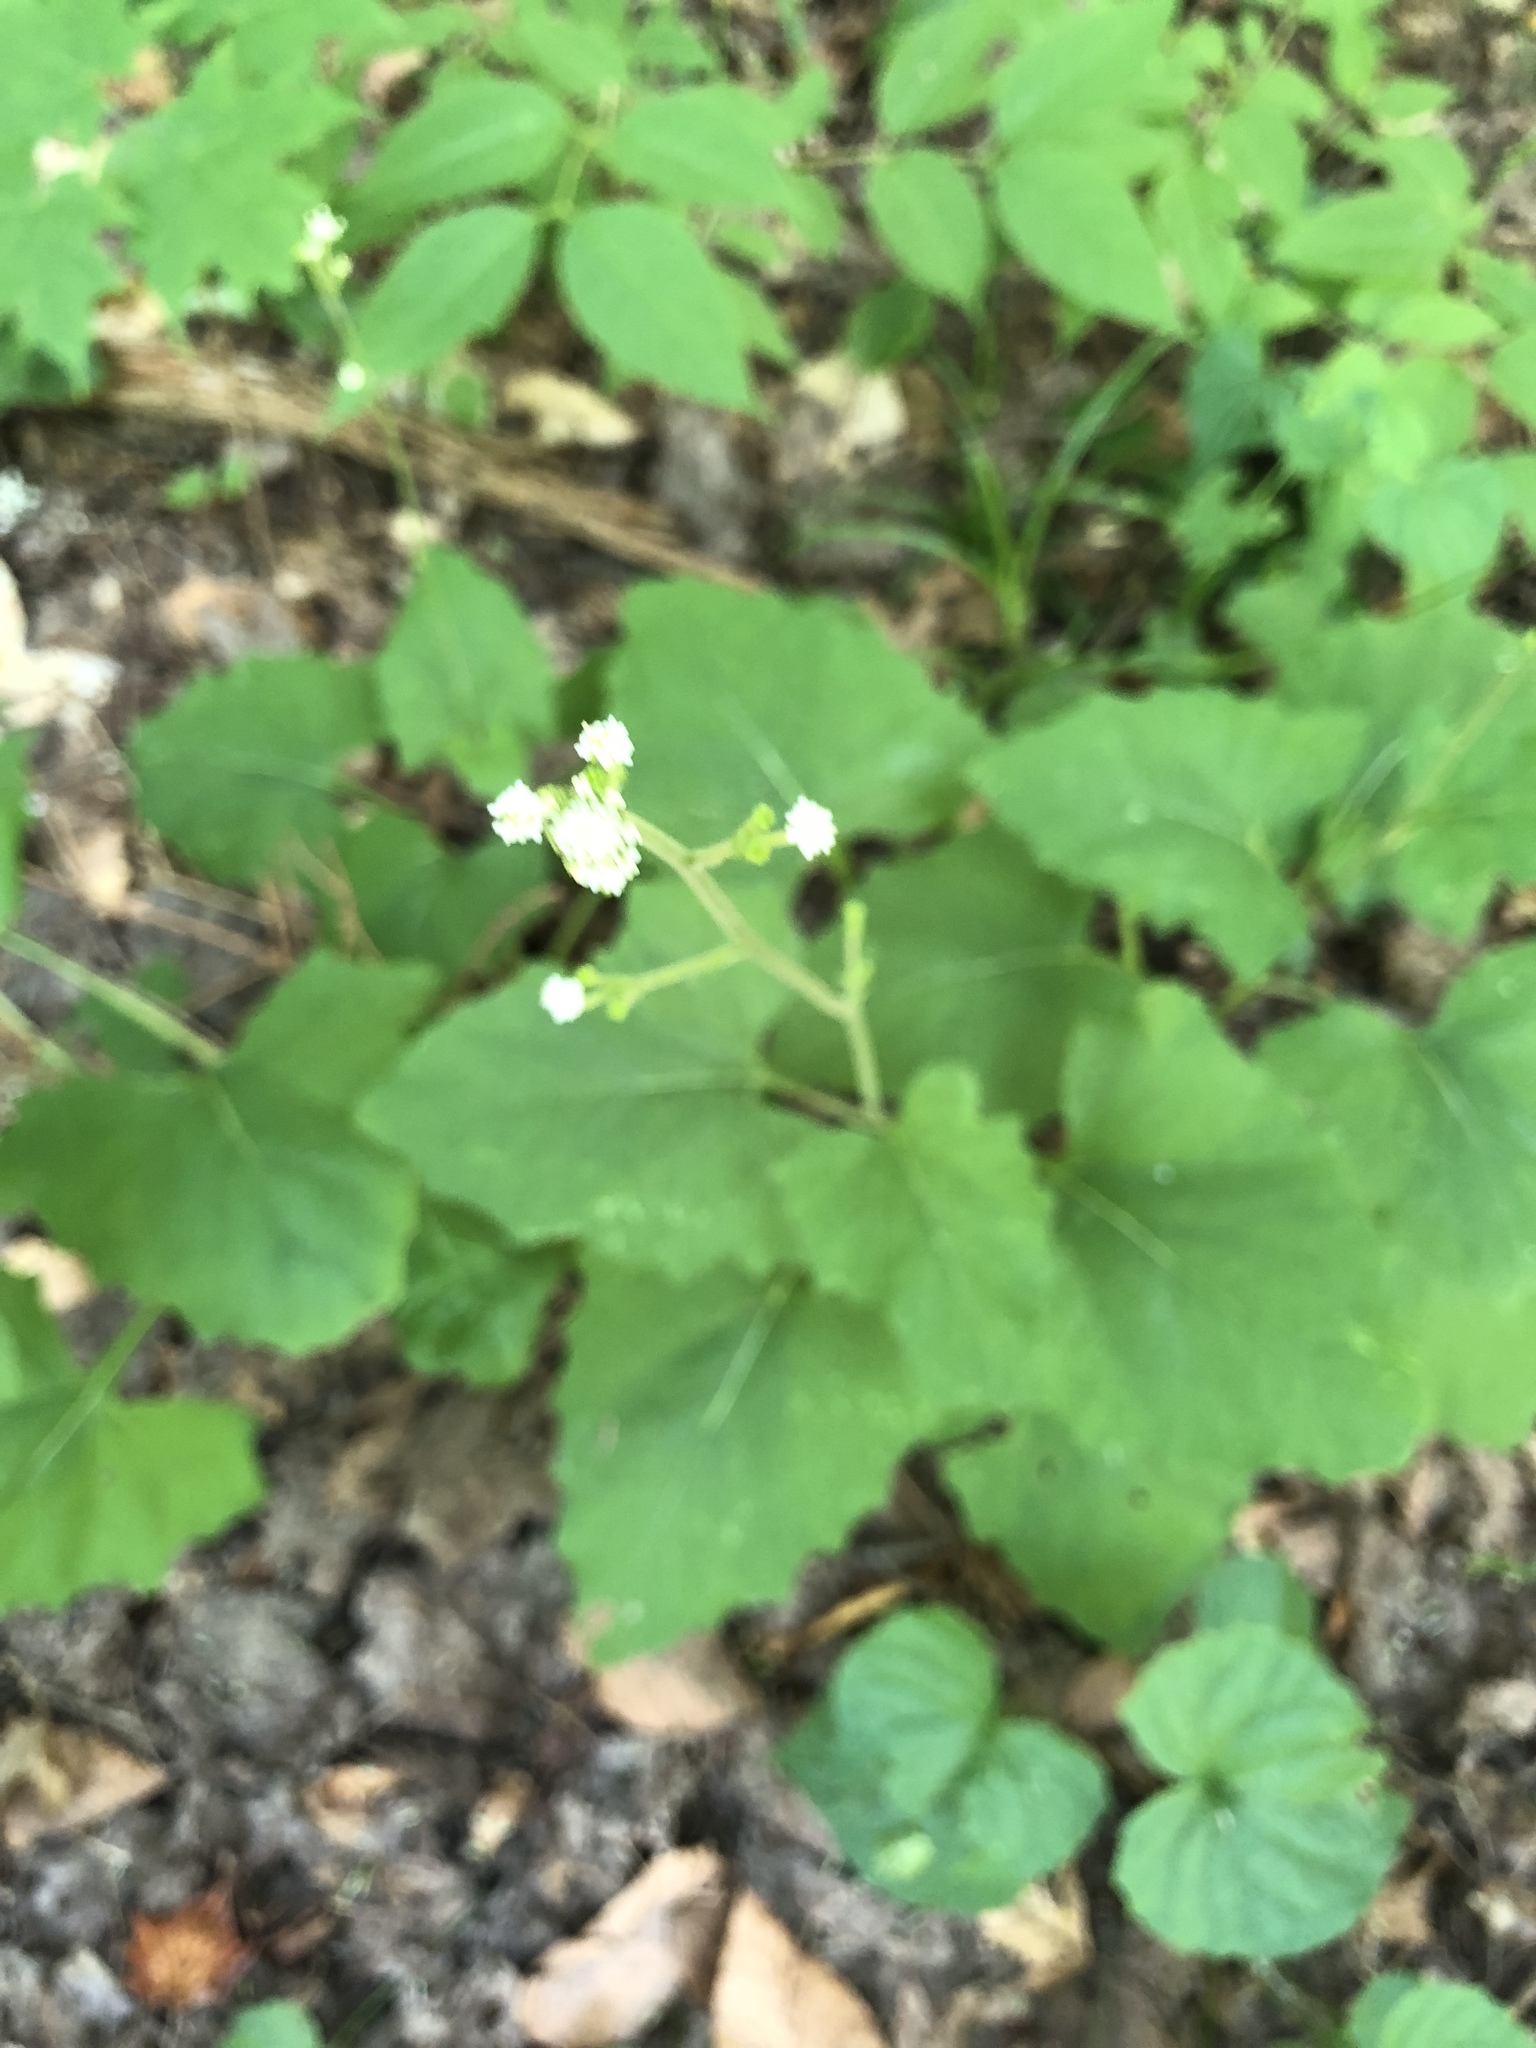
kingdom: Plantae
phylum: Tracheophyta
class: Magnoliopsida
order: Asterales
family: Asteraceae
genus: Adenocaulon
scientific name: Adenocaulon bicolor
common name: Trailplant
